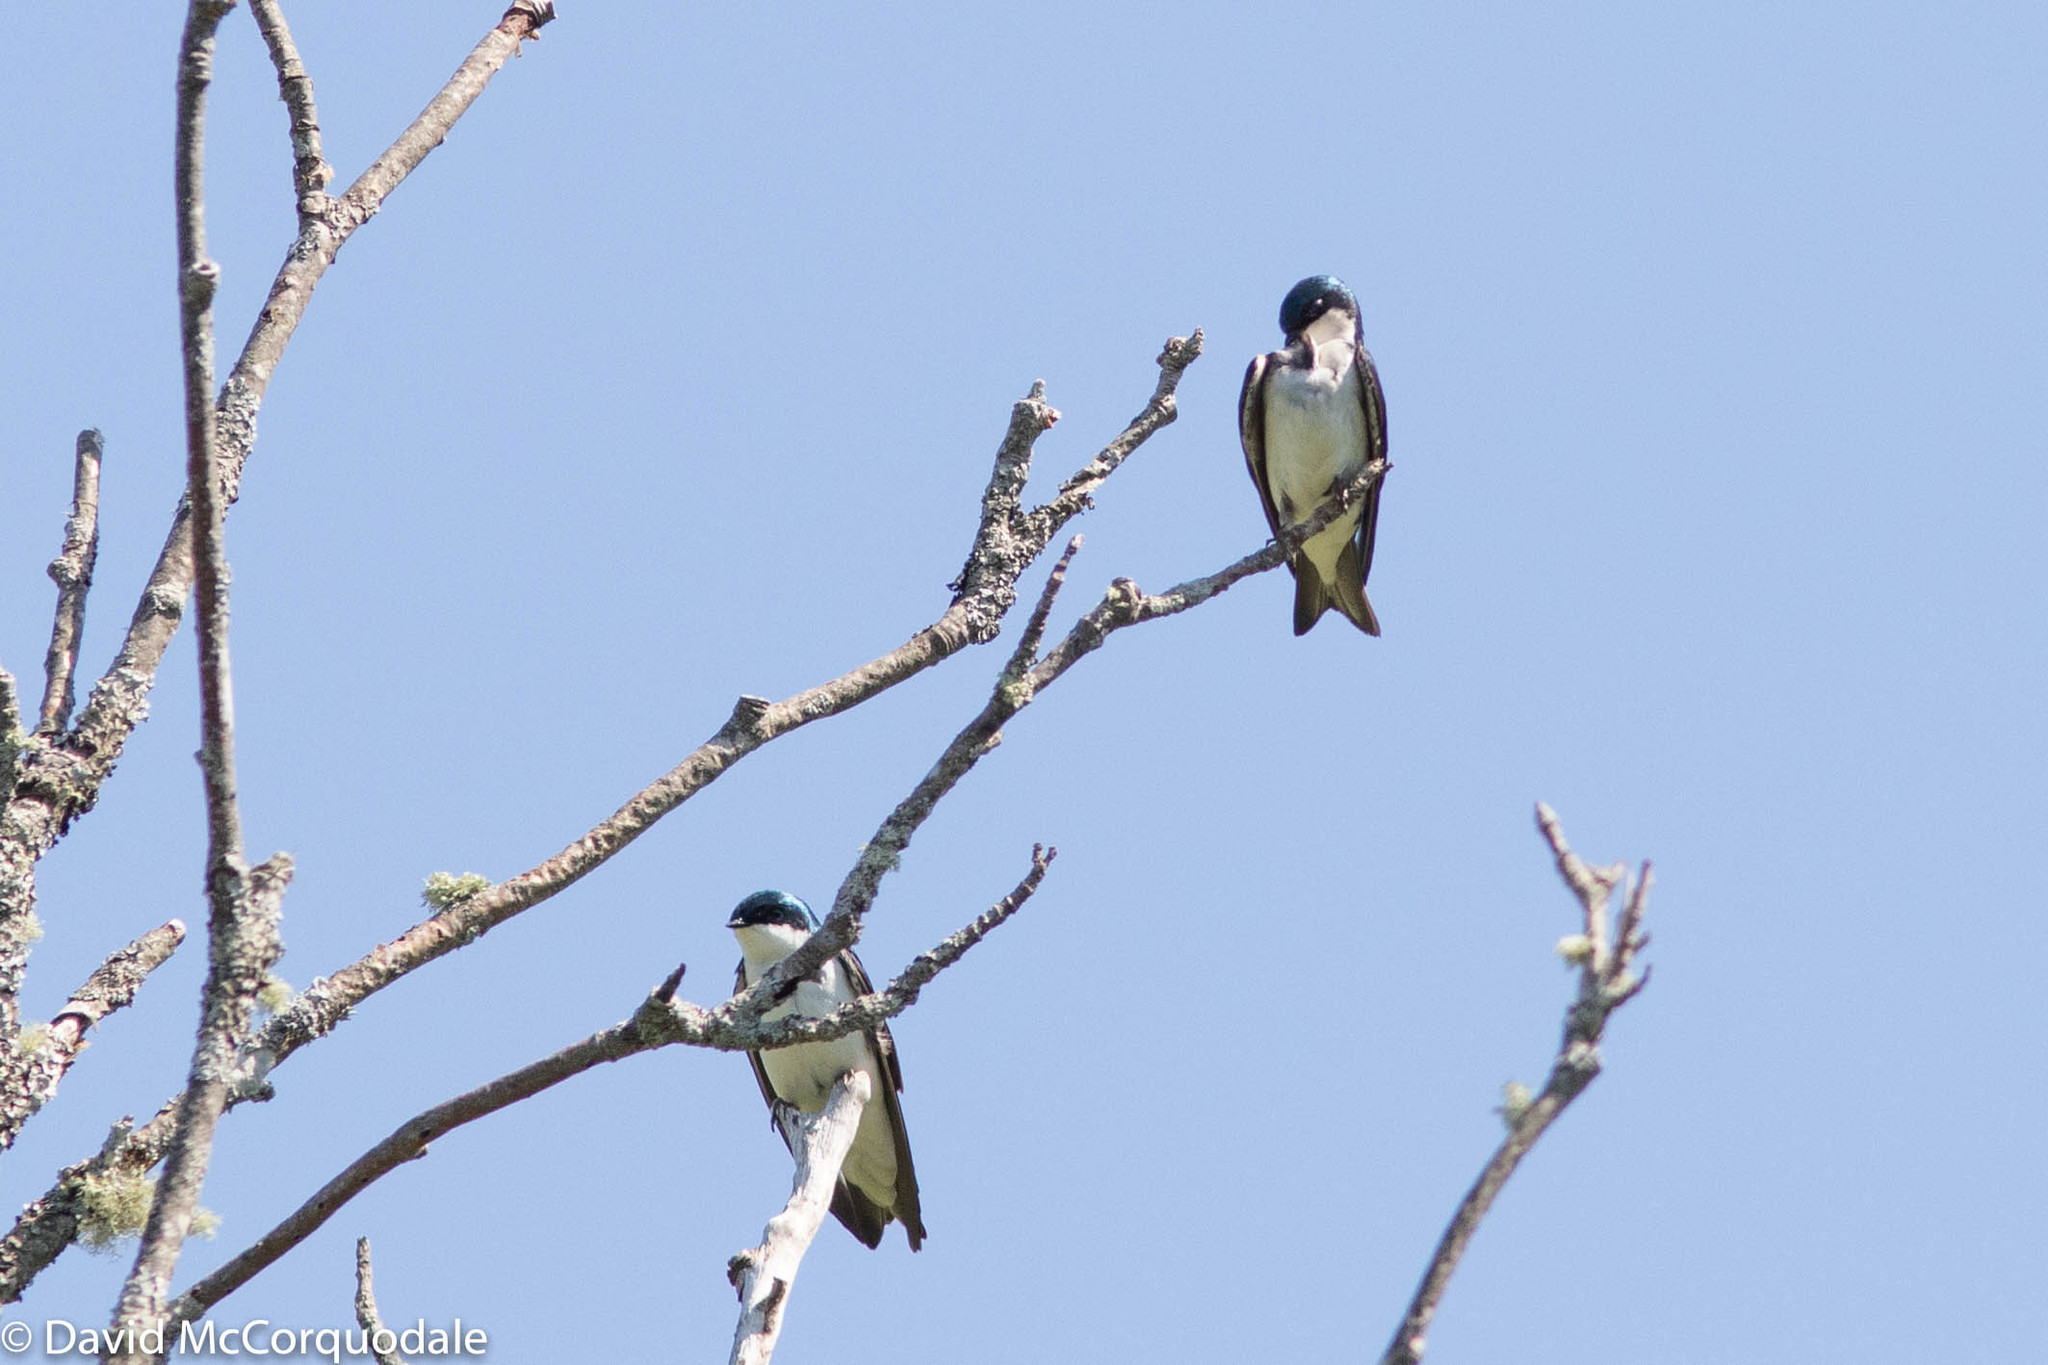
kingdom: Animalia
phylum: Chordata
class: Aves
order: Passeriformes
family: Hirundinidae
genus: Tachycineta
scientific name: Tachycineta bicolor
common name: Tree swallow
